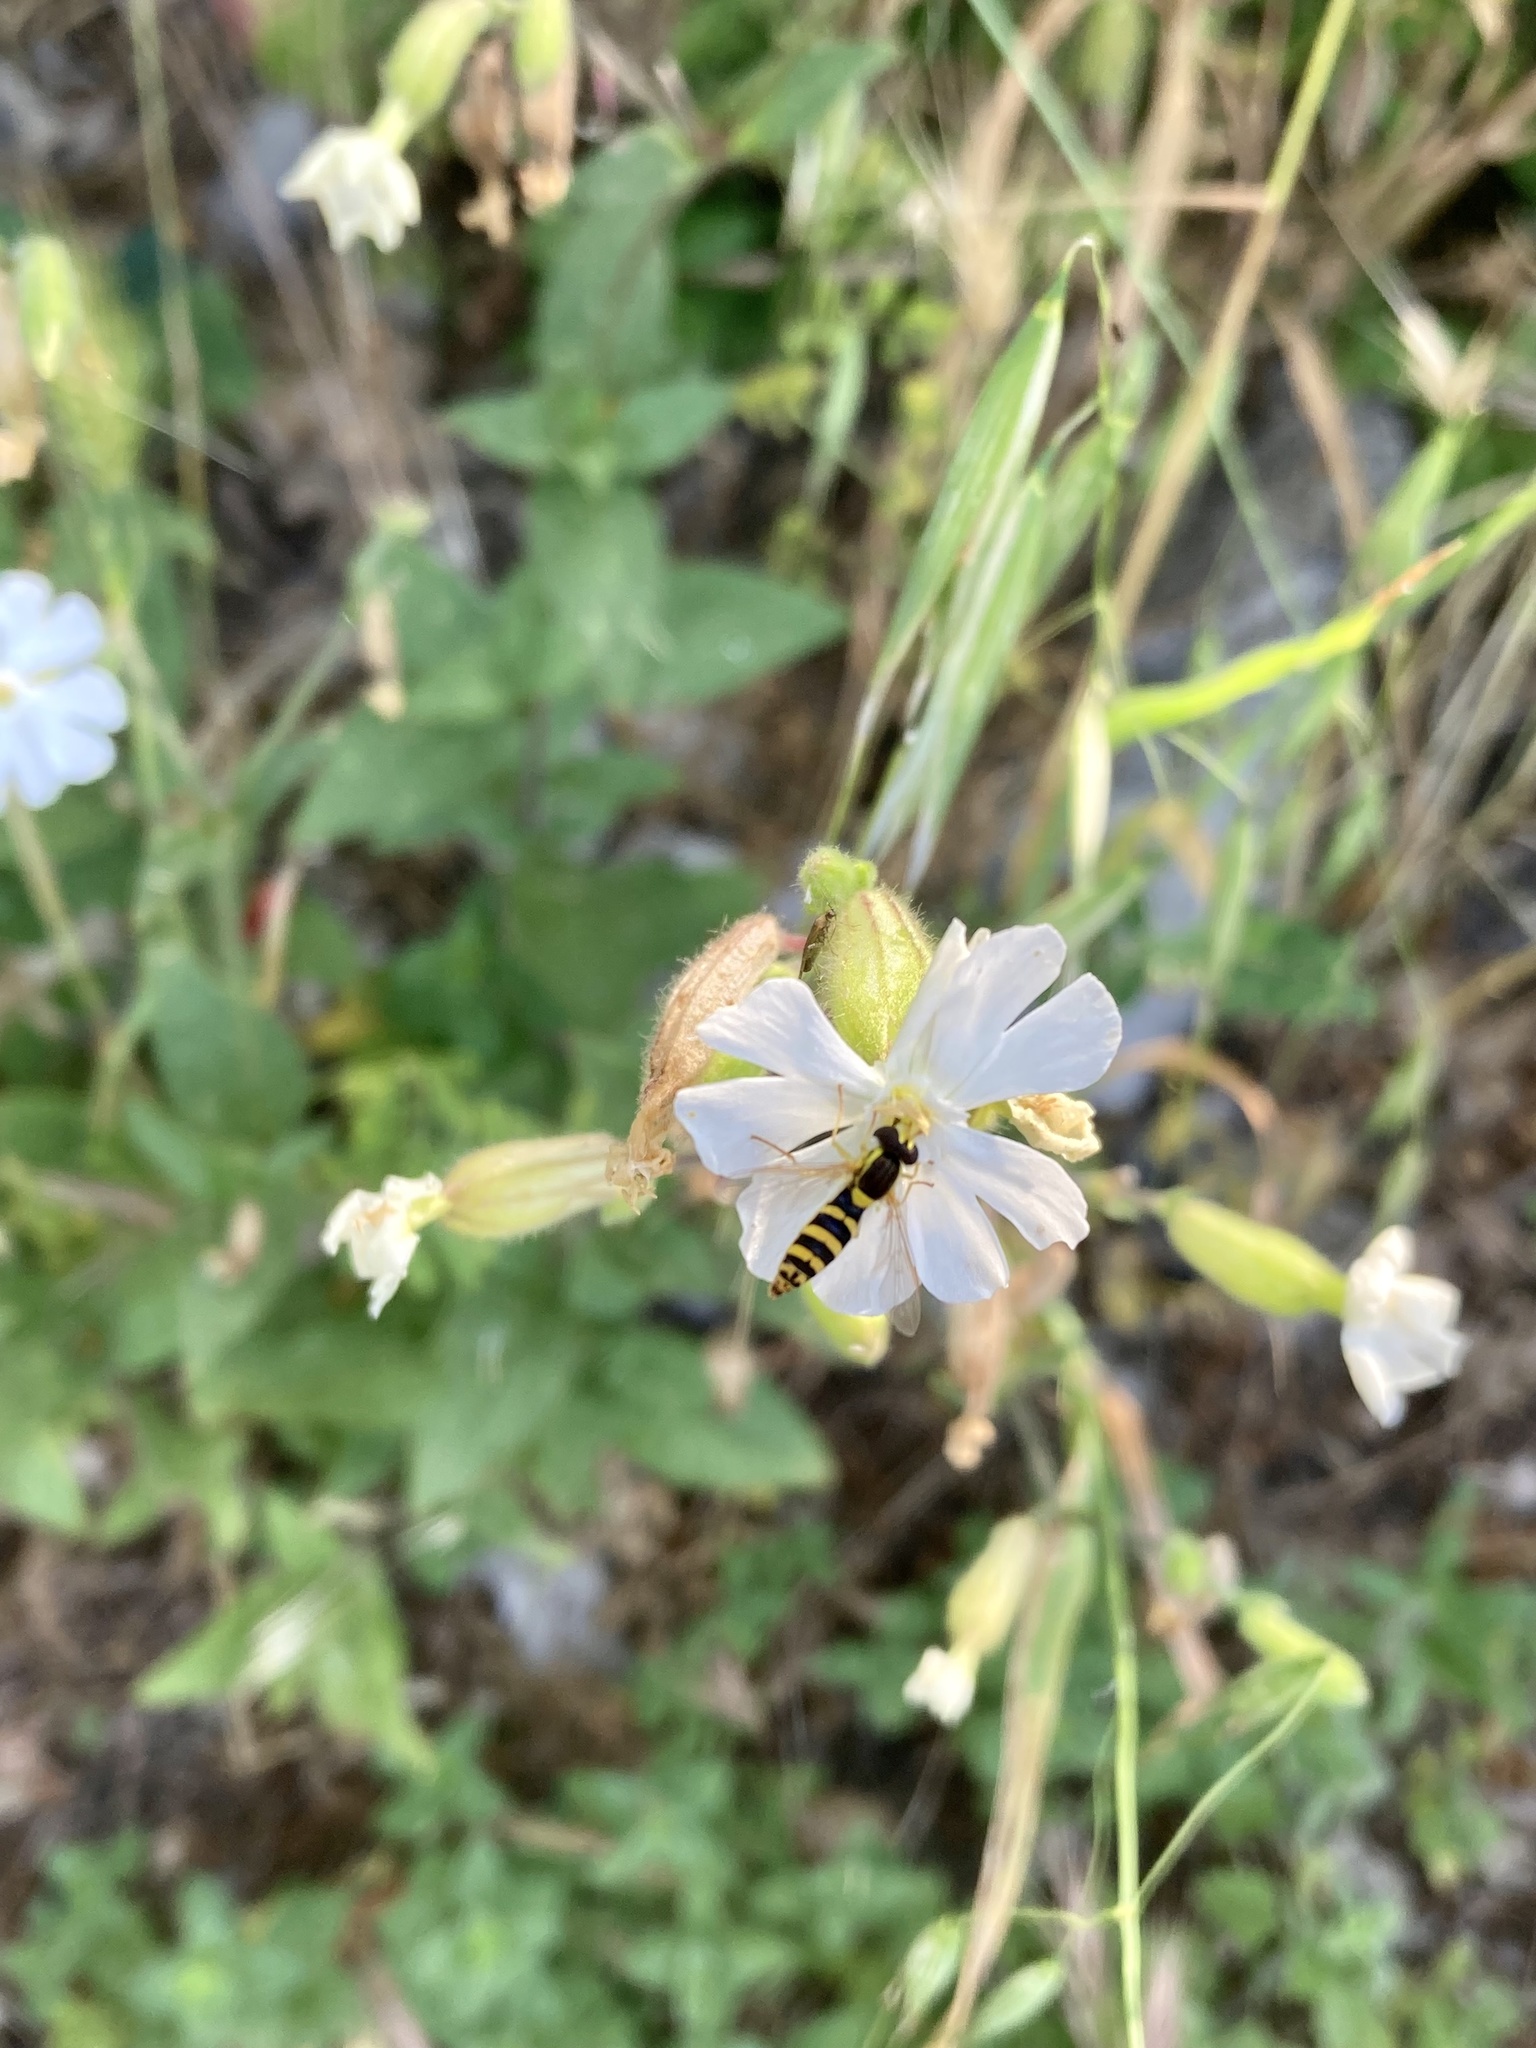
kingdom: Animalia
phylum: Arthropoda
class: Insecta
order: Diptera
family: Syrphidae
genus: Sphaerophoria
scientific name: Sphaerophoria
